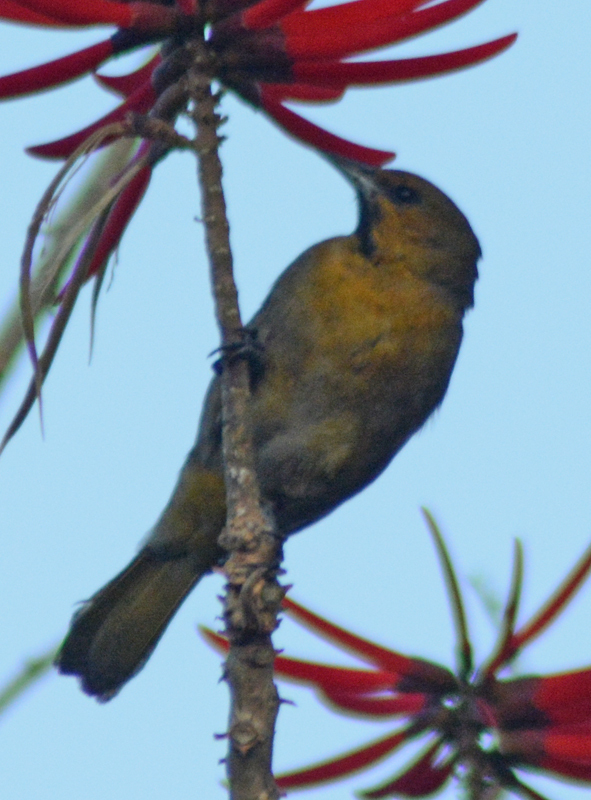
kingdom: Animalia
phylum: Chordata
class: Aves
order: Passeriformes
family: Icteridae
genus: Icterus
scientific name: Icterus abeillei
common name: Black-backed oriole
